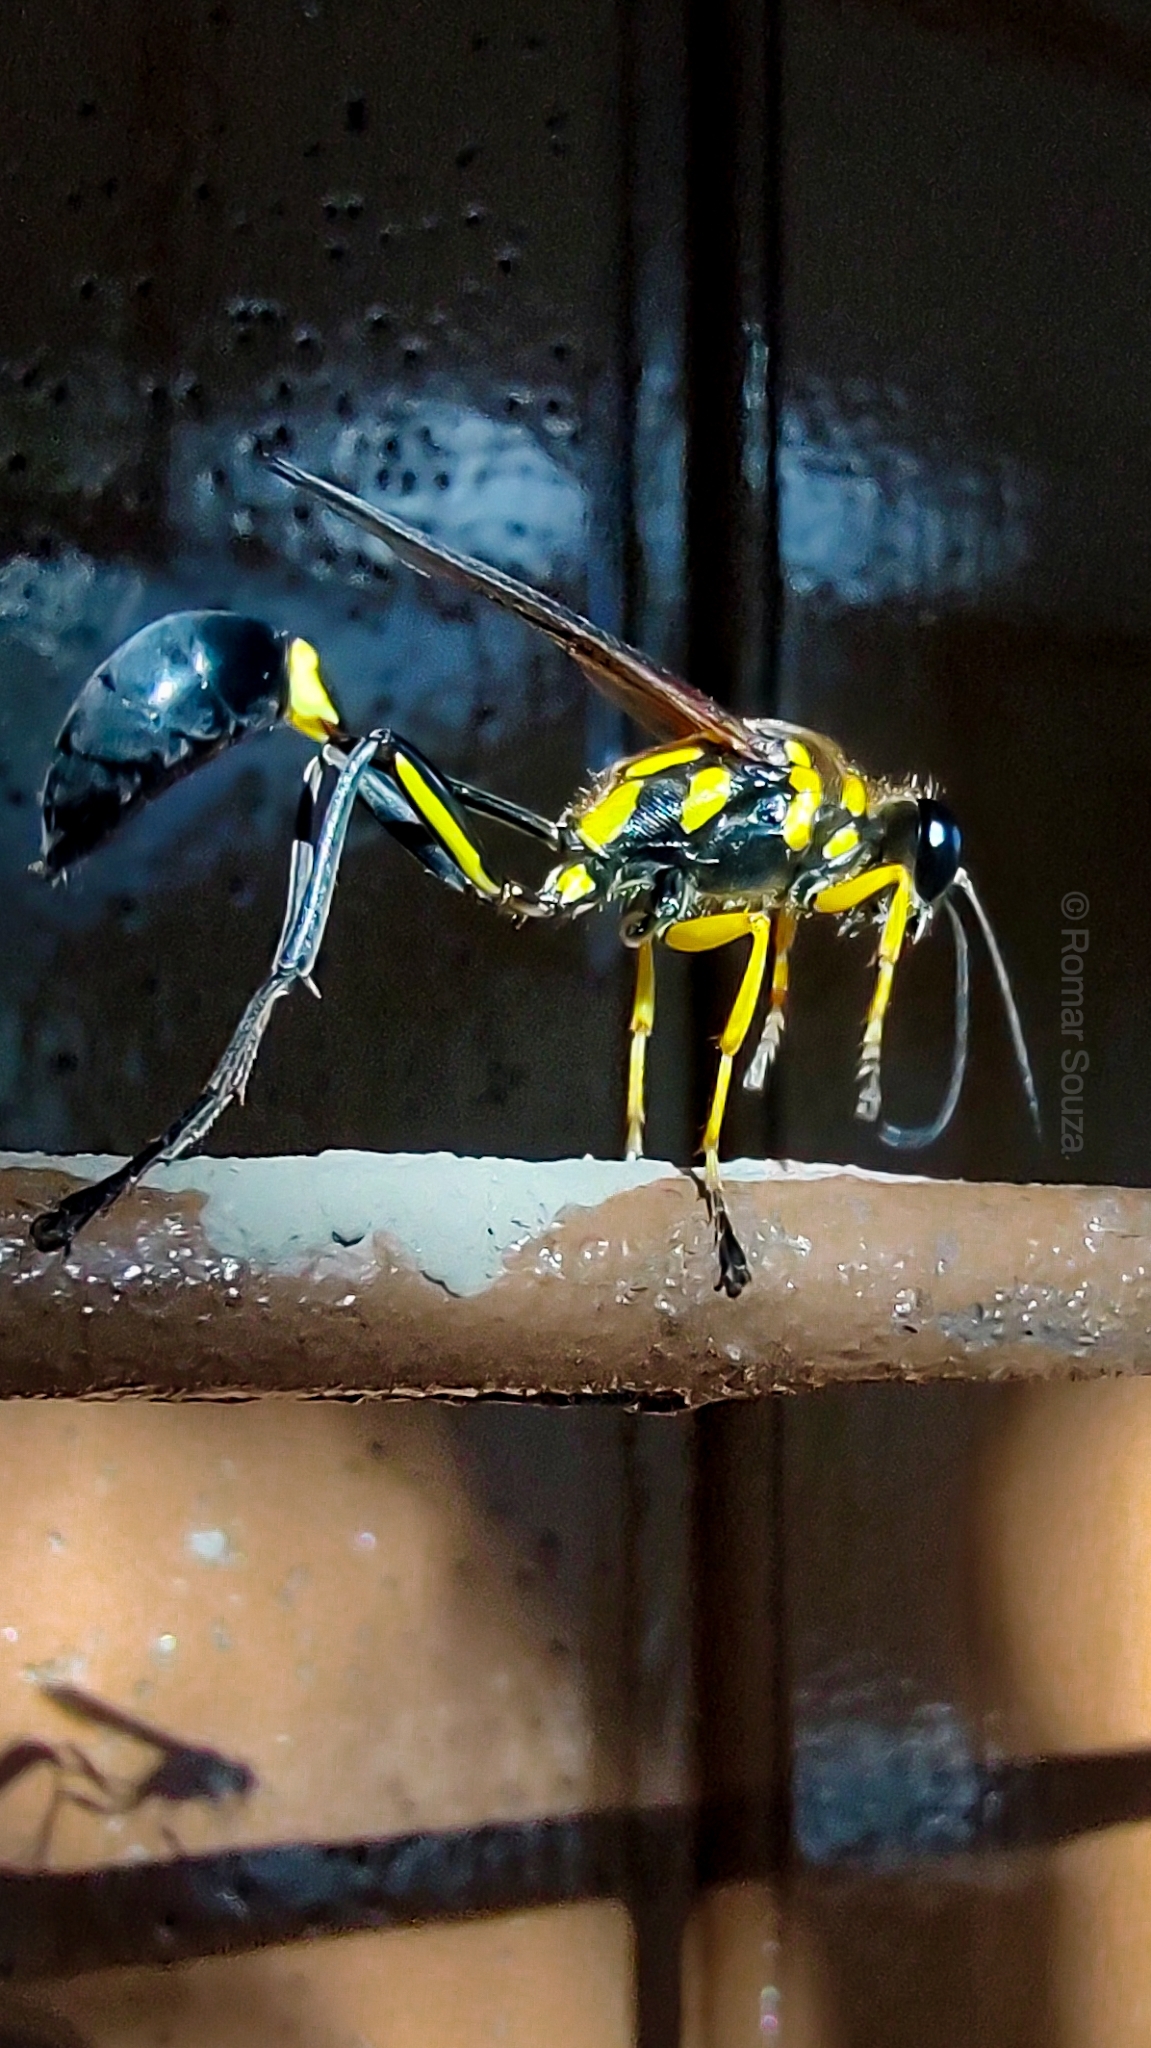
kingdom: Animalia
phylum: Arthropoda
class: Insecta
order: Hymenoptera
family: Sphecidae
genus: Sceliphron
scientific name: Sceliphron fistularium
